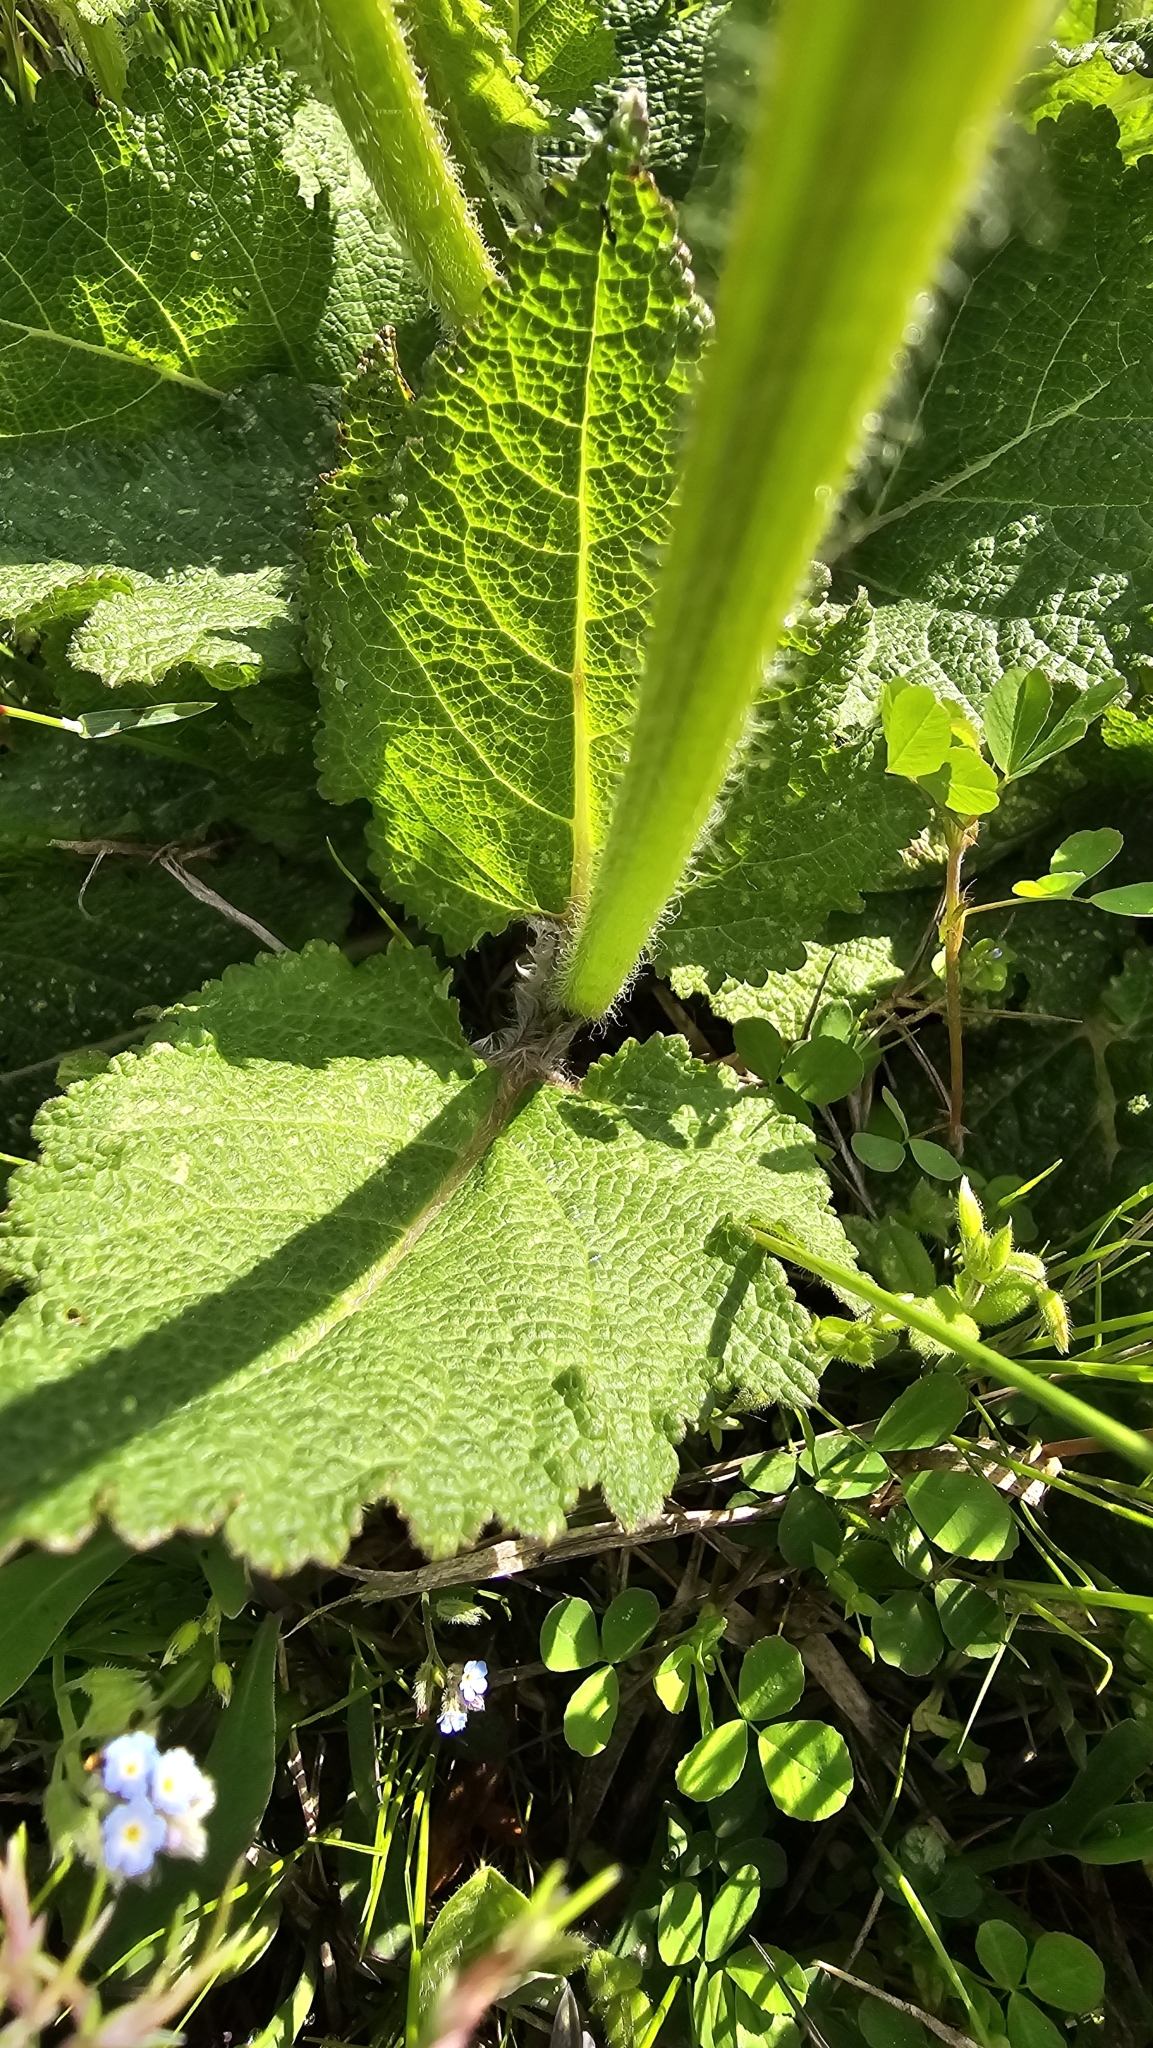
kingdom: Plantae
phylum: Tracheophyta
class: Magnoliopsida
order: Lamiales
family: Lamiaceae
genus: Salvia
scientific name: Salvia pratensis
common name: Meadow sage
